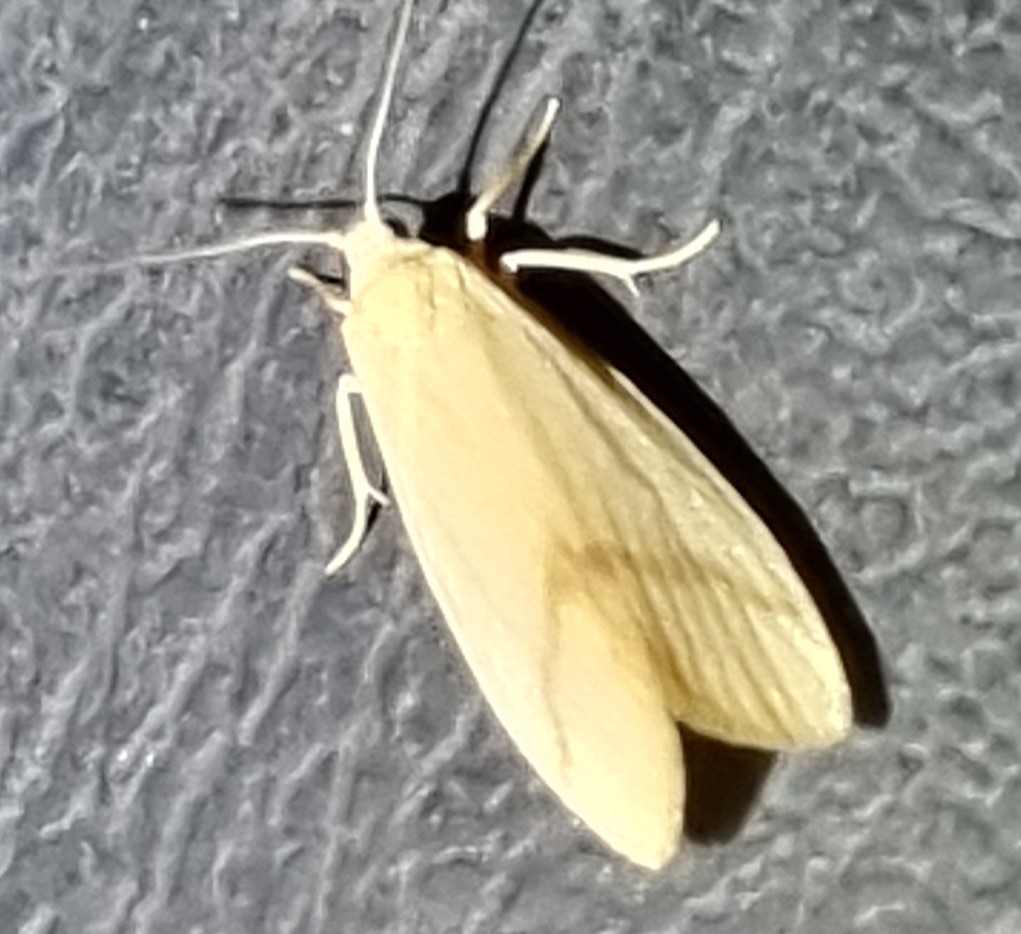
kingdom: Animalia
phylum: Arthropoda
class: Insecta
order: Lepidoptera
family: Erebidae
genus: Notata
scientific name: Notata modicus
